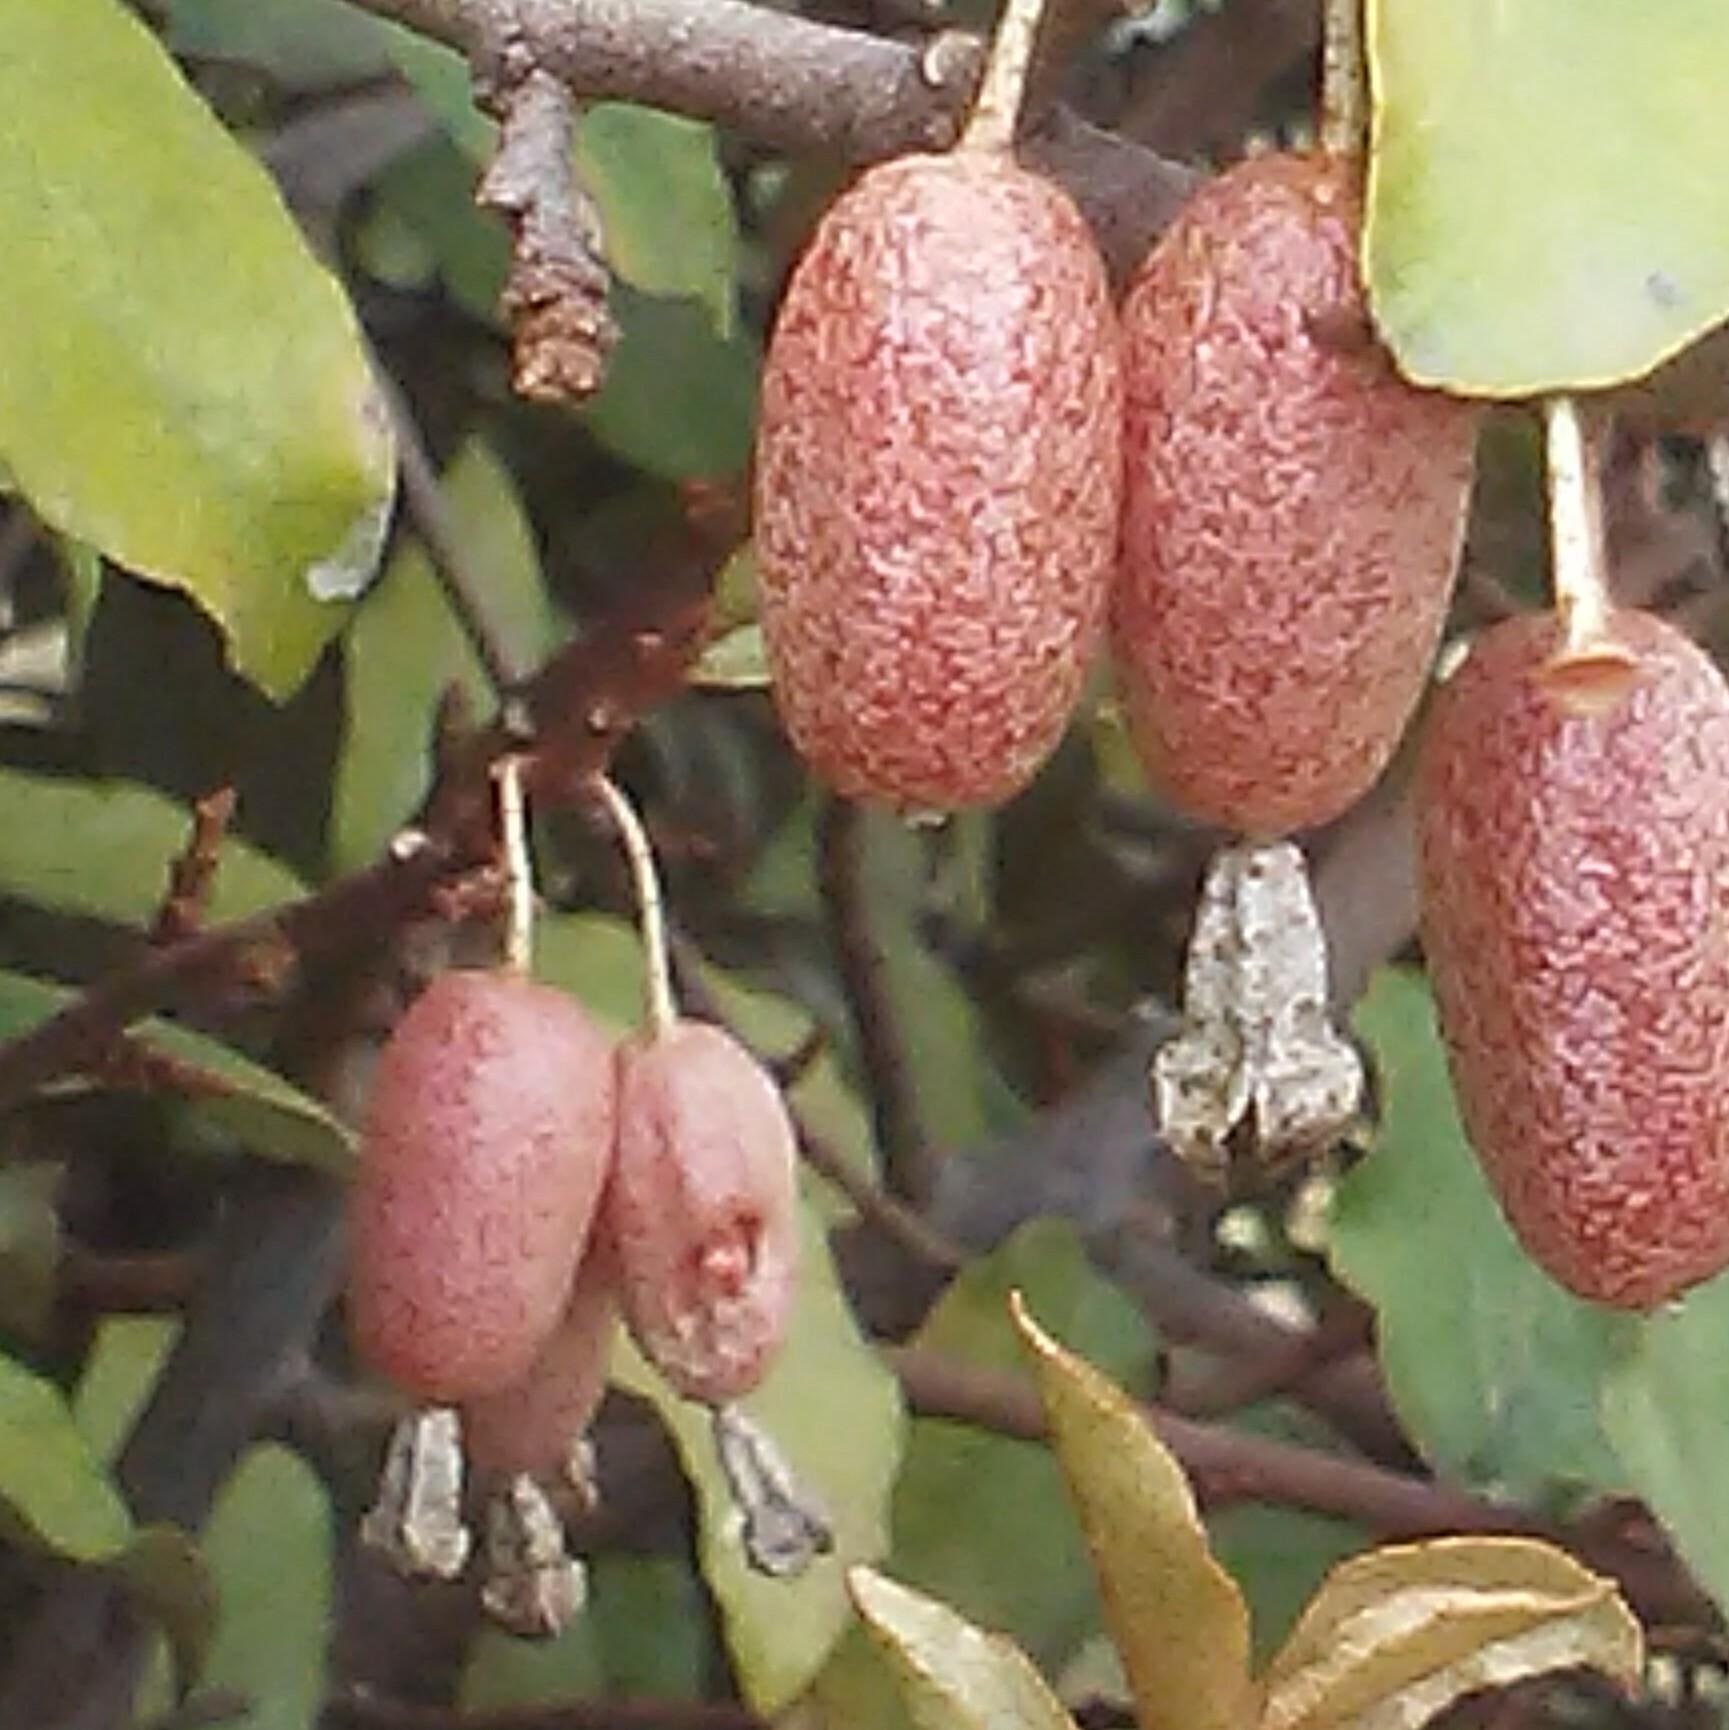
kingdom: Plantae
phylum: Tracheophyta
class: Magnoliopsida
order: Rosales
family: Elaeagnaceae
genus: Elaeagnus
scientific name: Elaeagnus pungens
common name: Spiny oleaster
